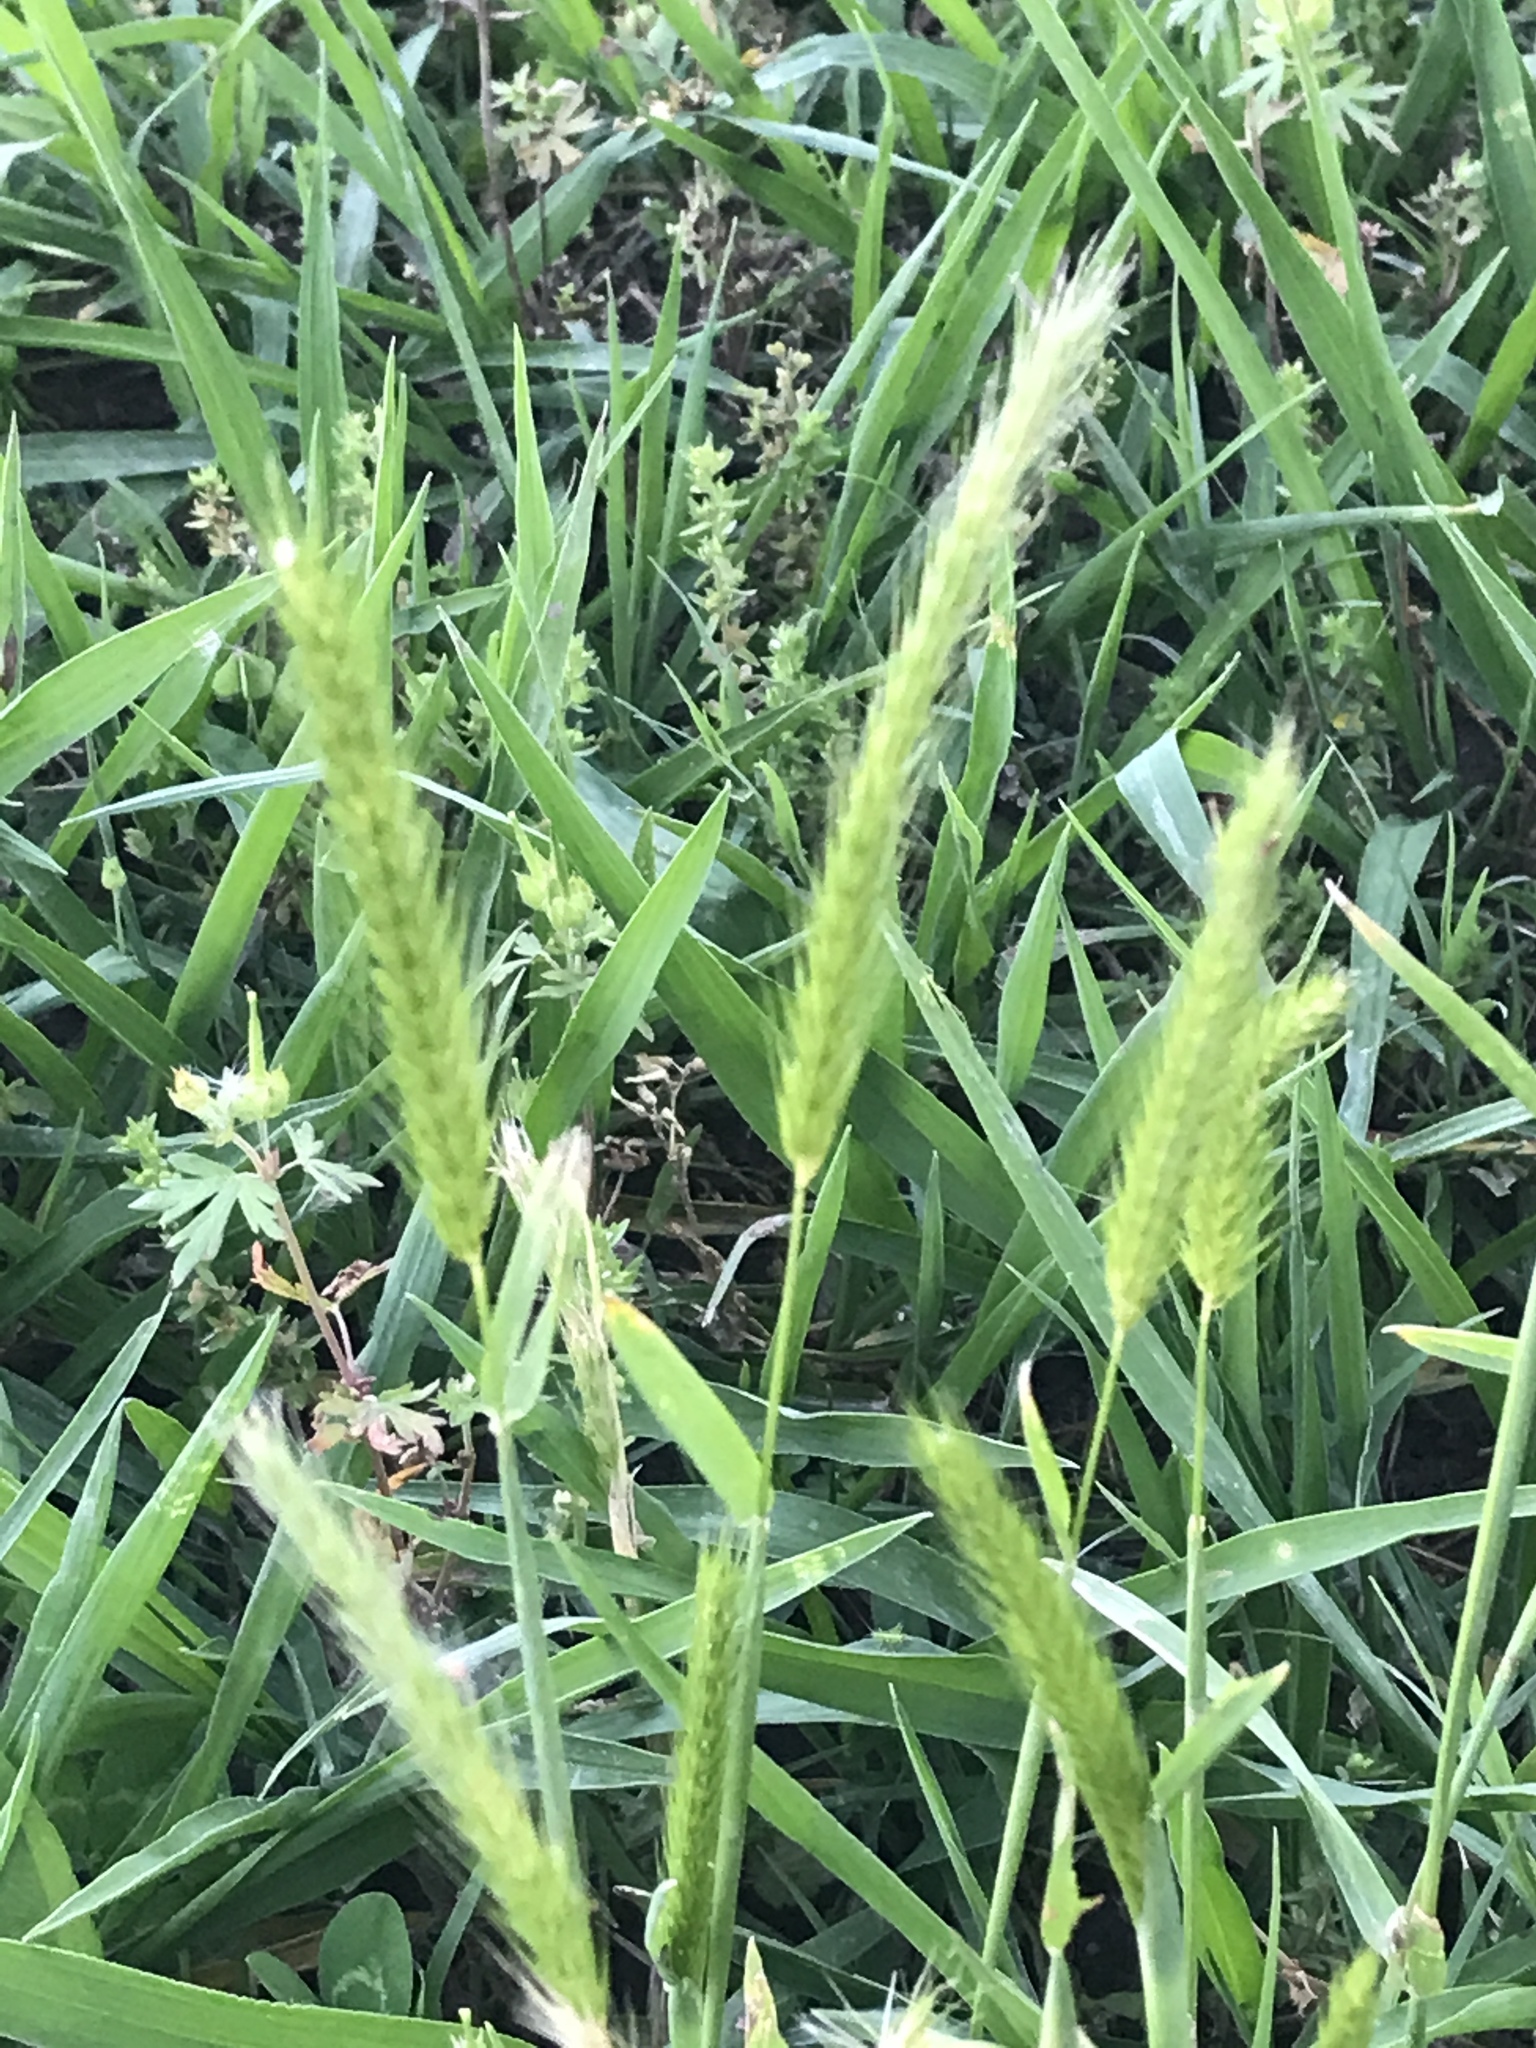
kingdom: Plantae
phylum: Tracheophyta
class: Liliopsida
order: Poales
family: Poaceae
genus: Hordeum
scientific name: Hordeum pusillum
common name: Little barley
